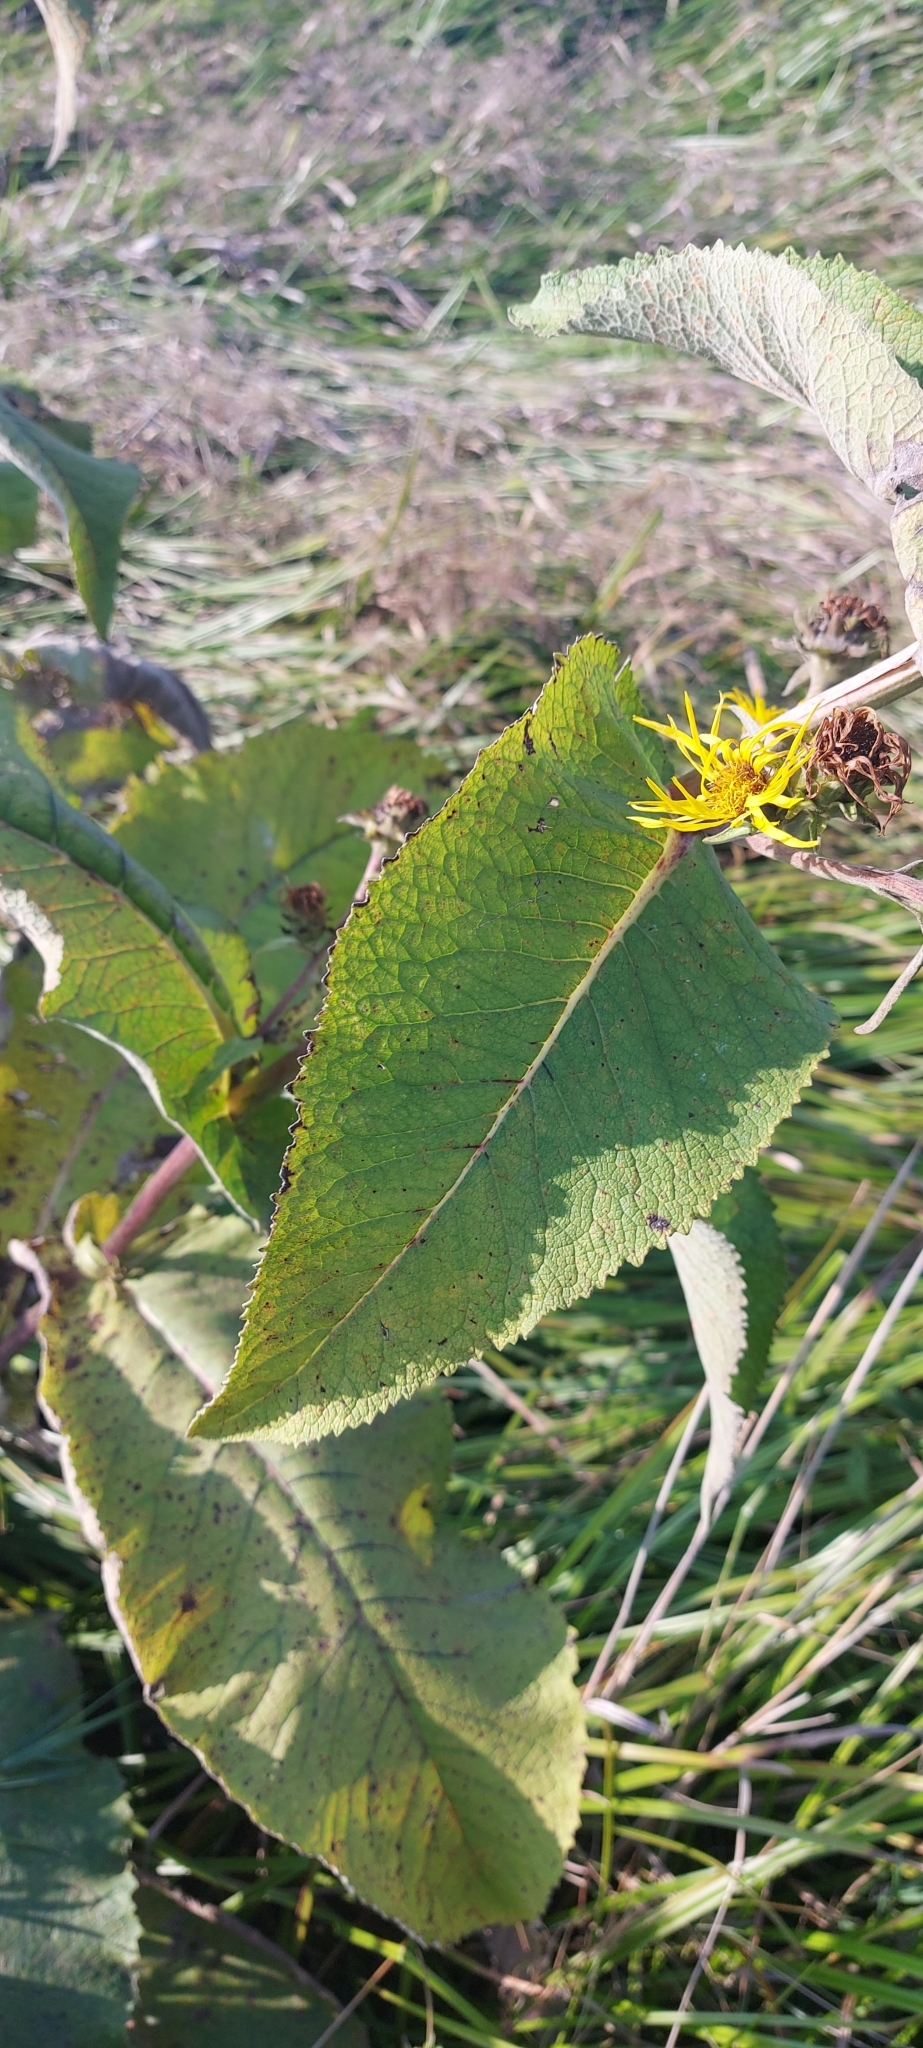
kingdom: Plantae
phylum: Tracheophyta
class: Magnoliopsida
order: Asterales
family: Asteraceae
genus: Inula
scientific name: Inula helenium
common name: Elecampane
